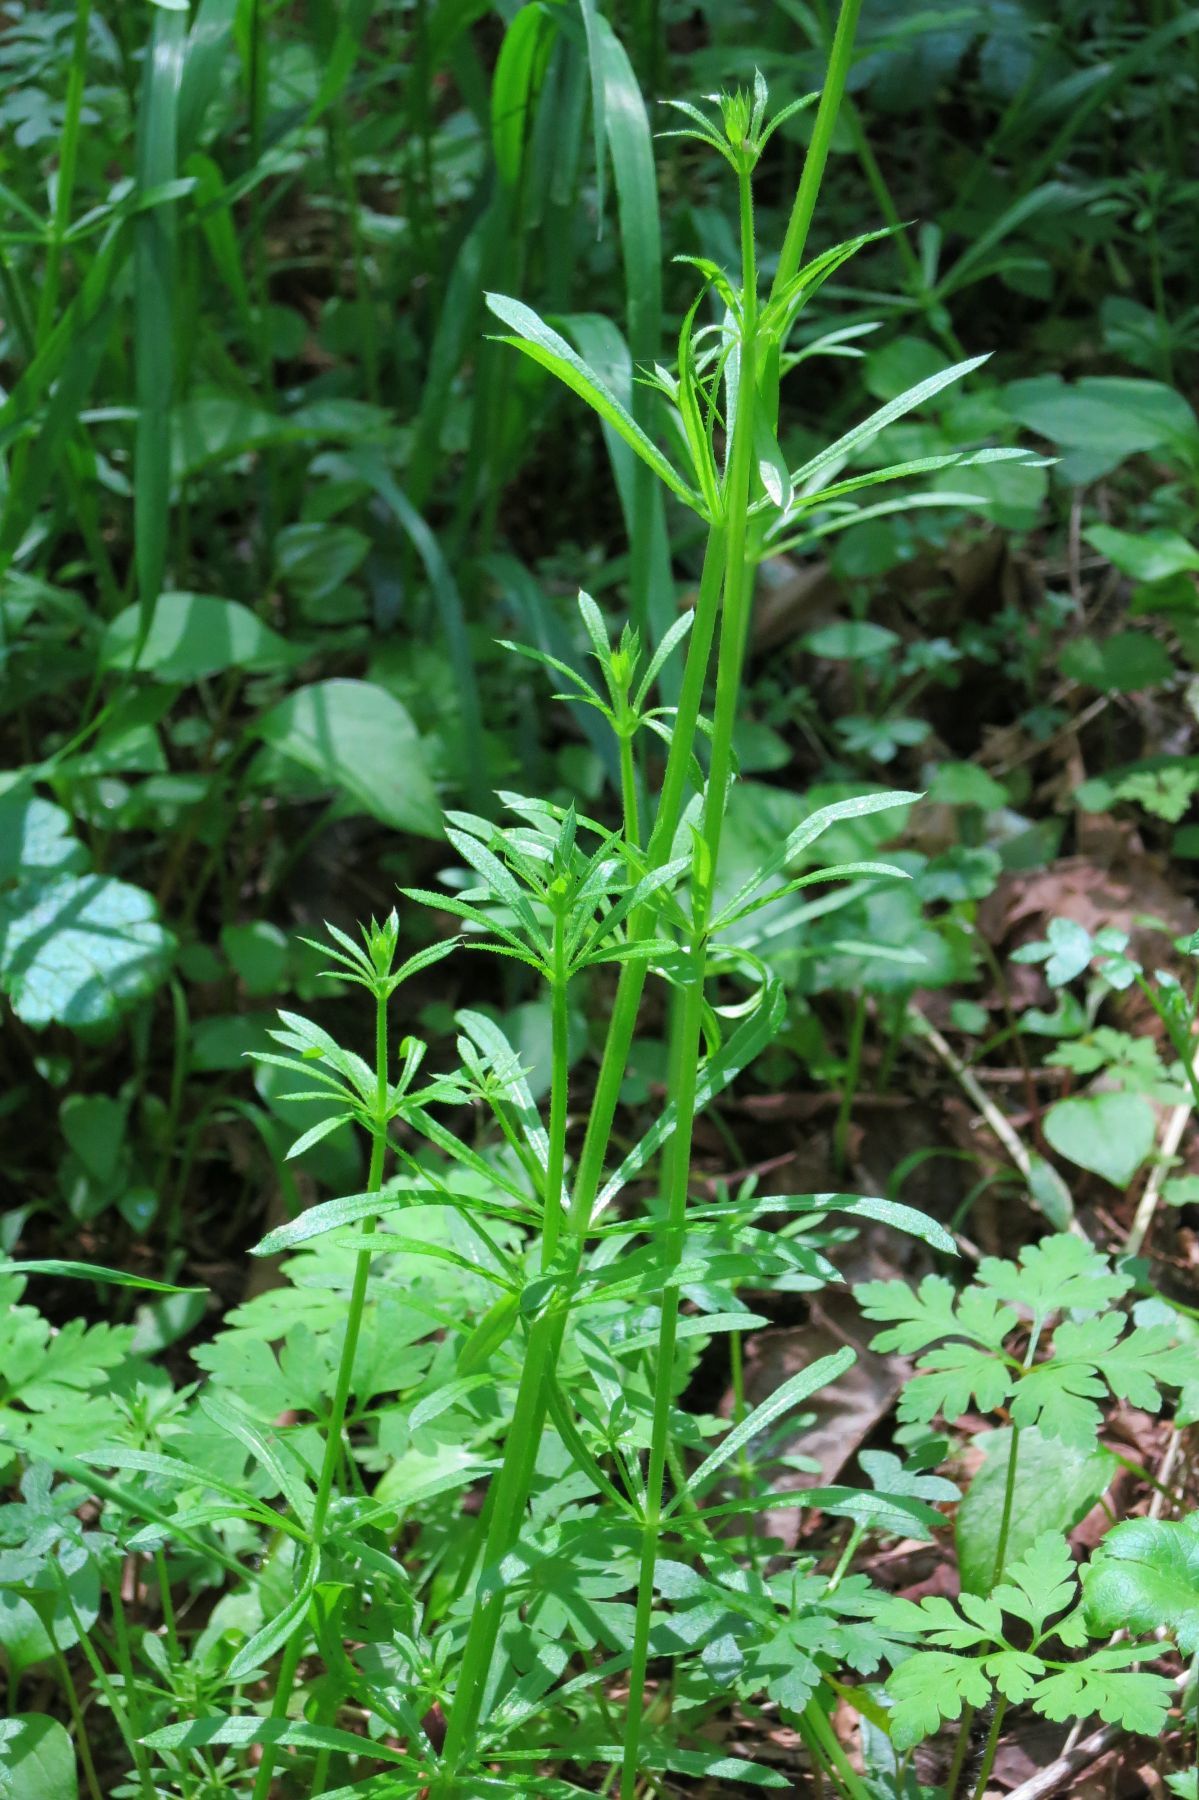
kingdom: Plantae
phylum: Tracheophyta
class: Magnoliopsida
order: Gentianales
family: Rubiaceae
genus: Galium
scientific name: Galium aparine
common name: Cleavers
